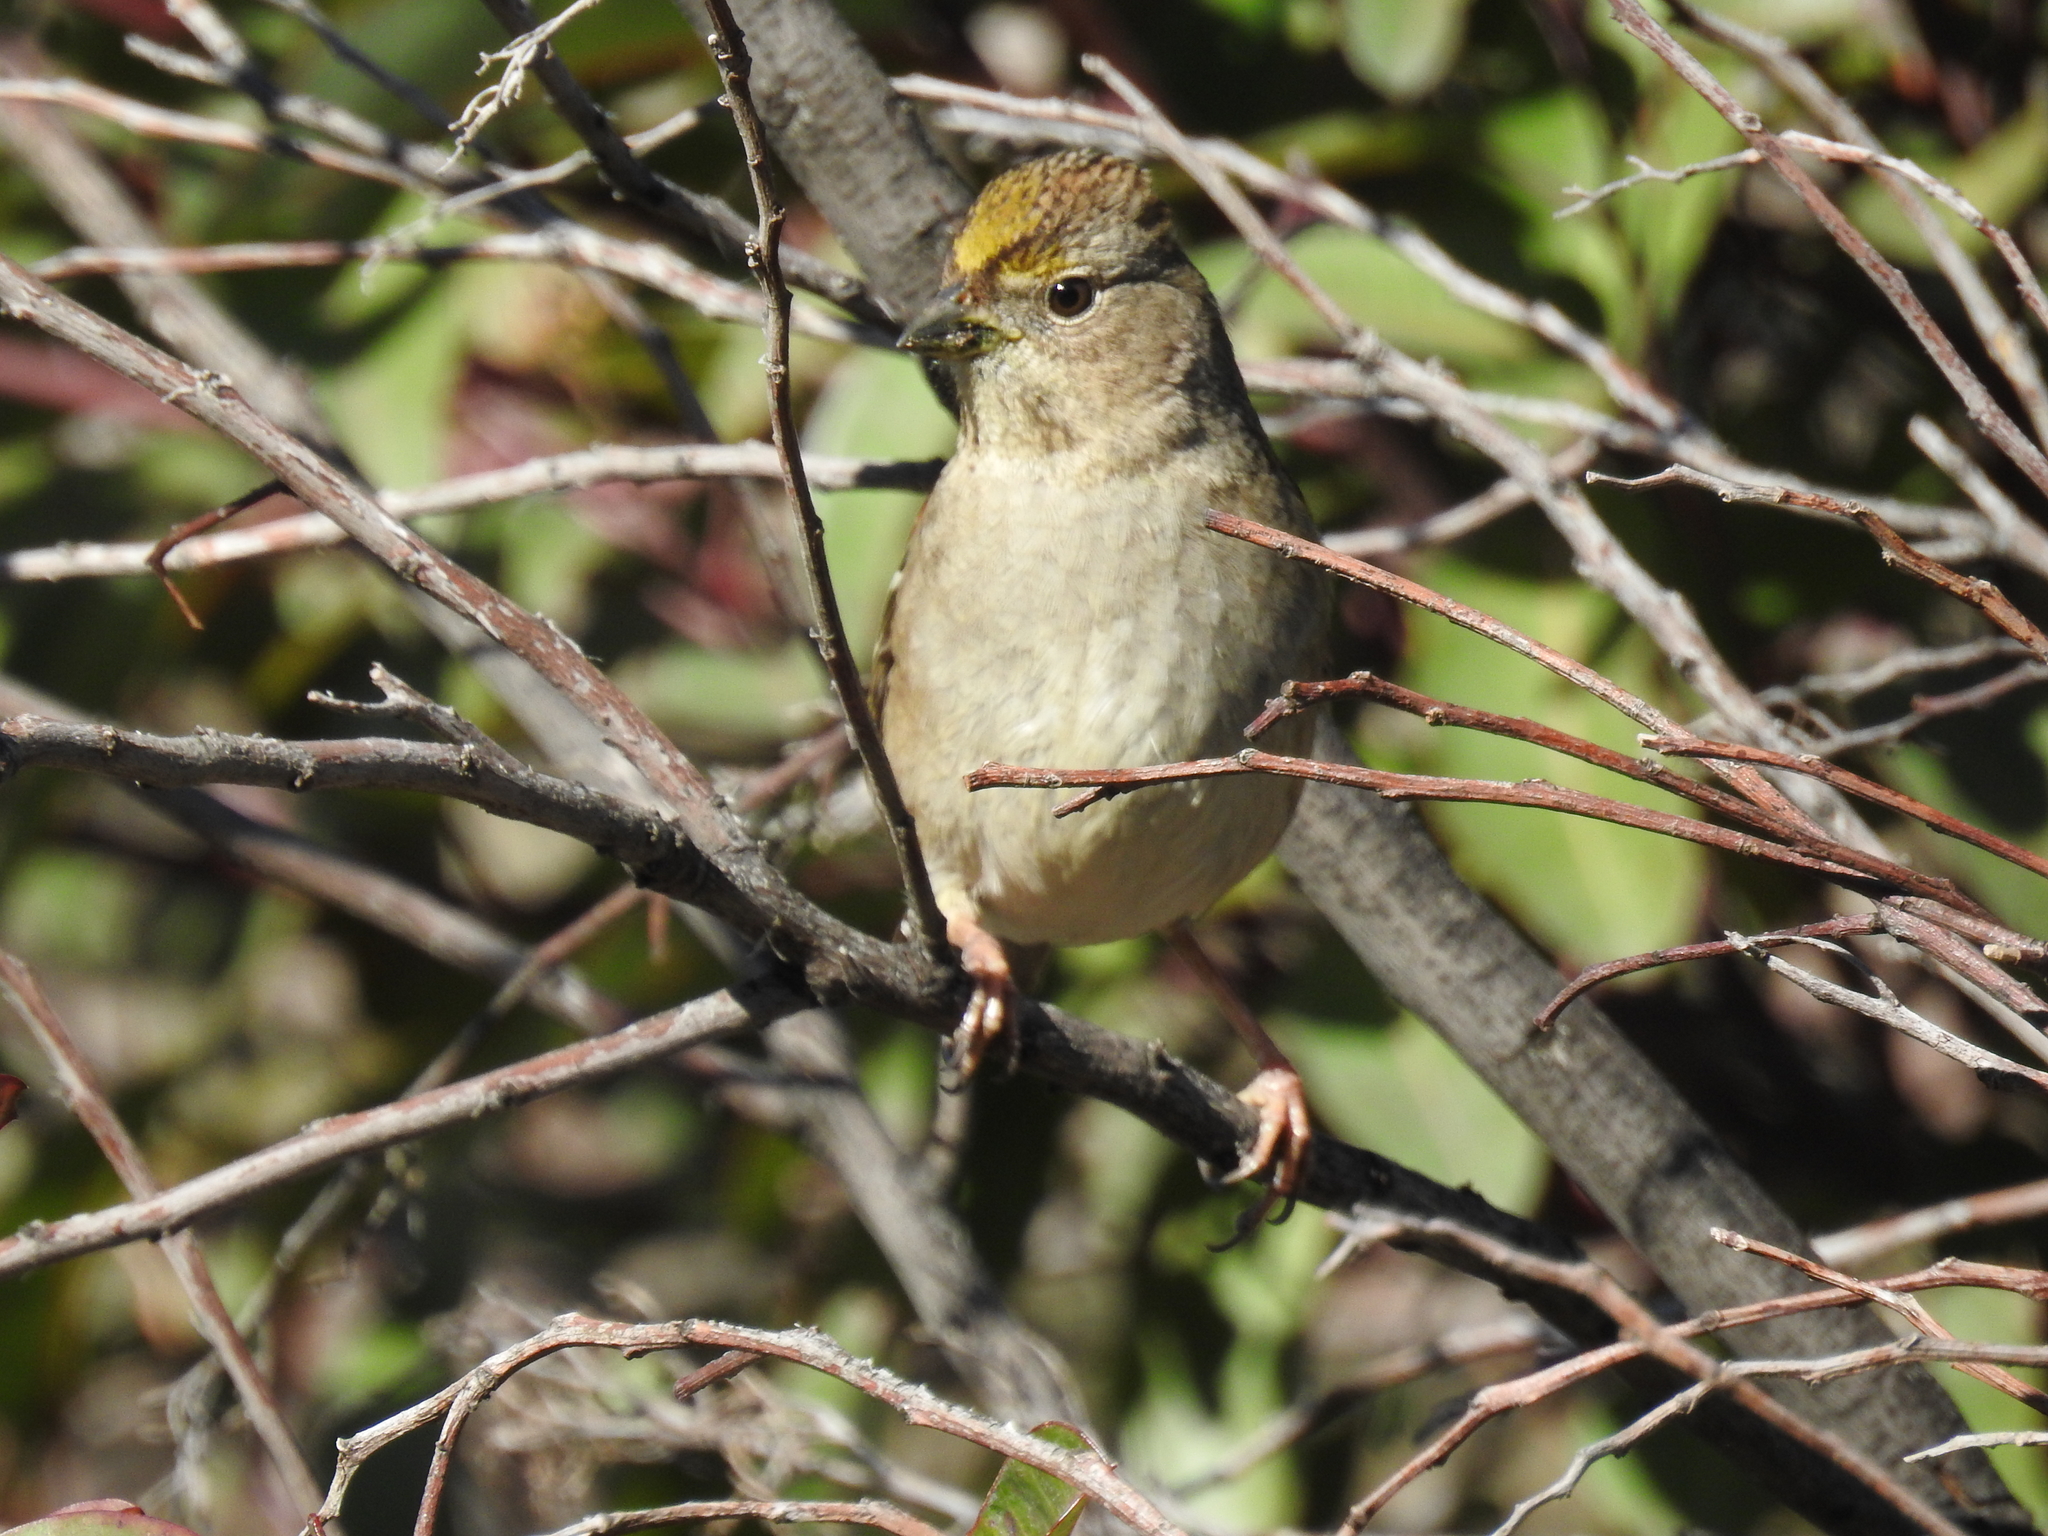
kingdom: Animalia
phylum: Chordata
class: Aves
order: Passeriformes
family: Passerellidae
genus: Zonotrichia
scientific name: Zonotrichia atricapilla
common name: Golden-crowned sparrow
